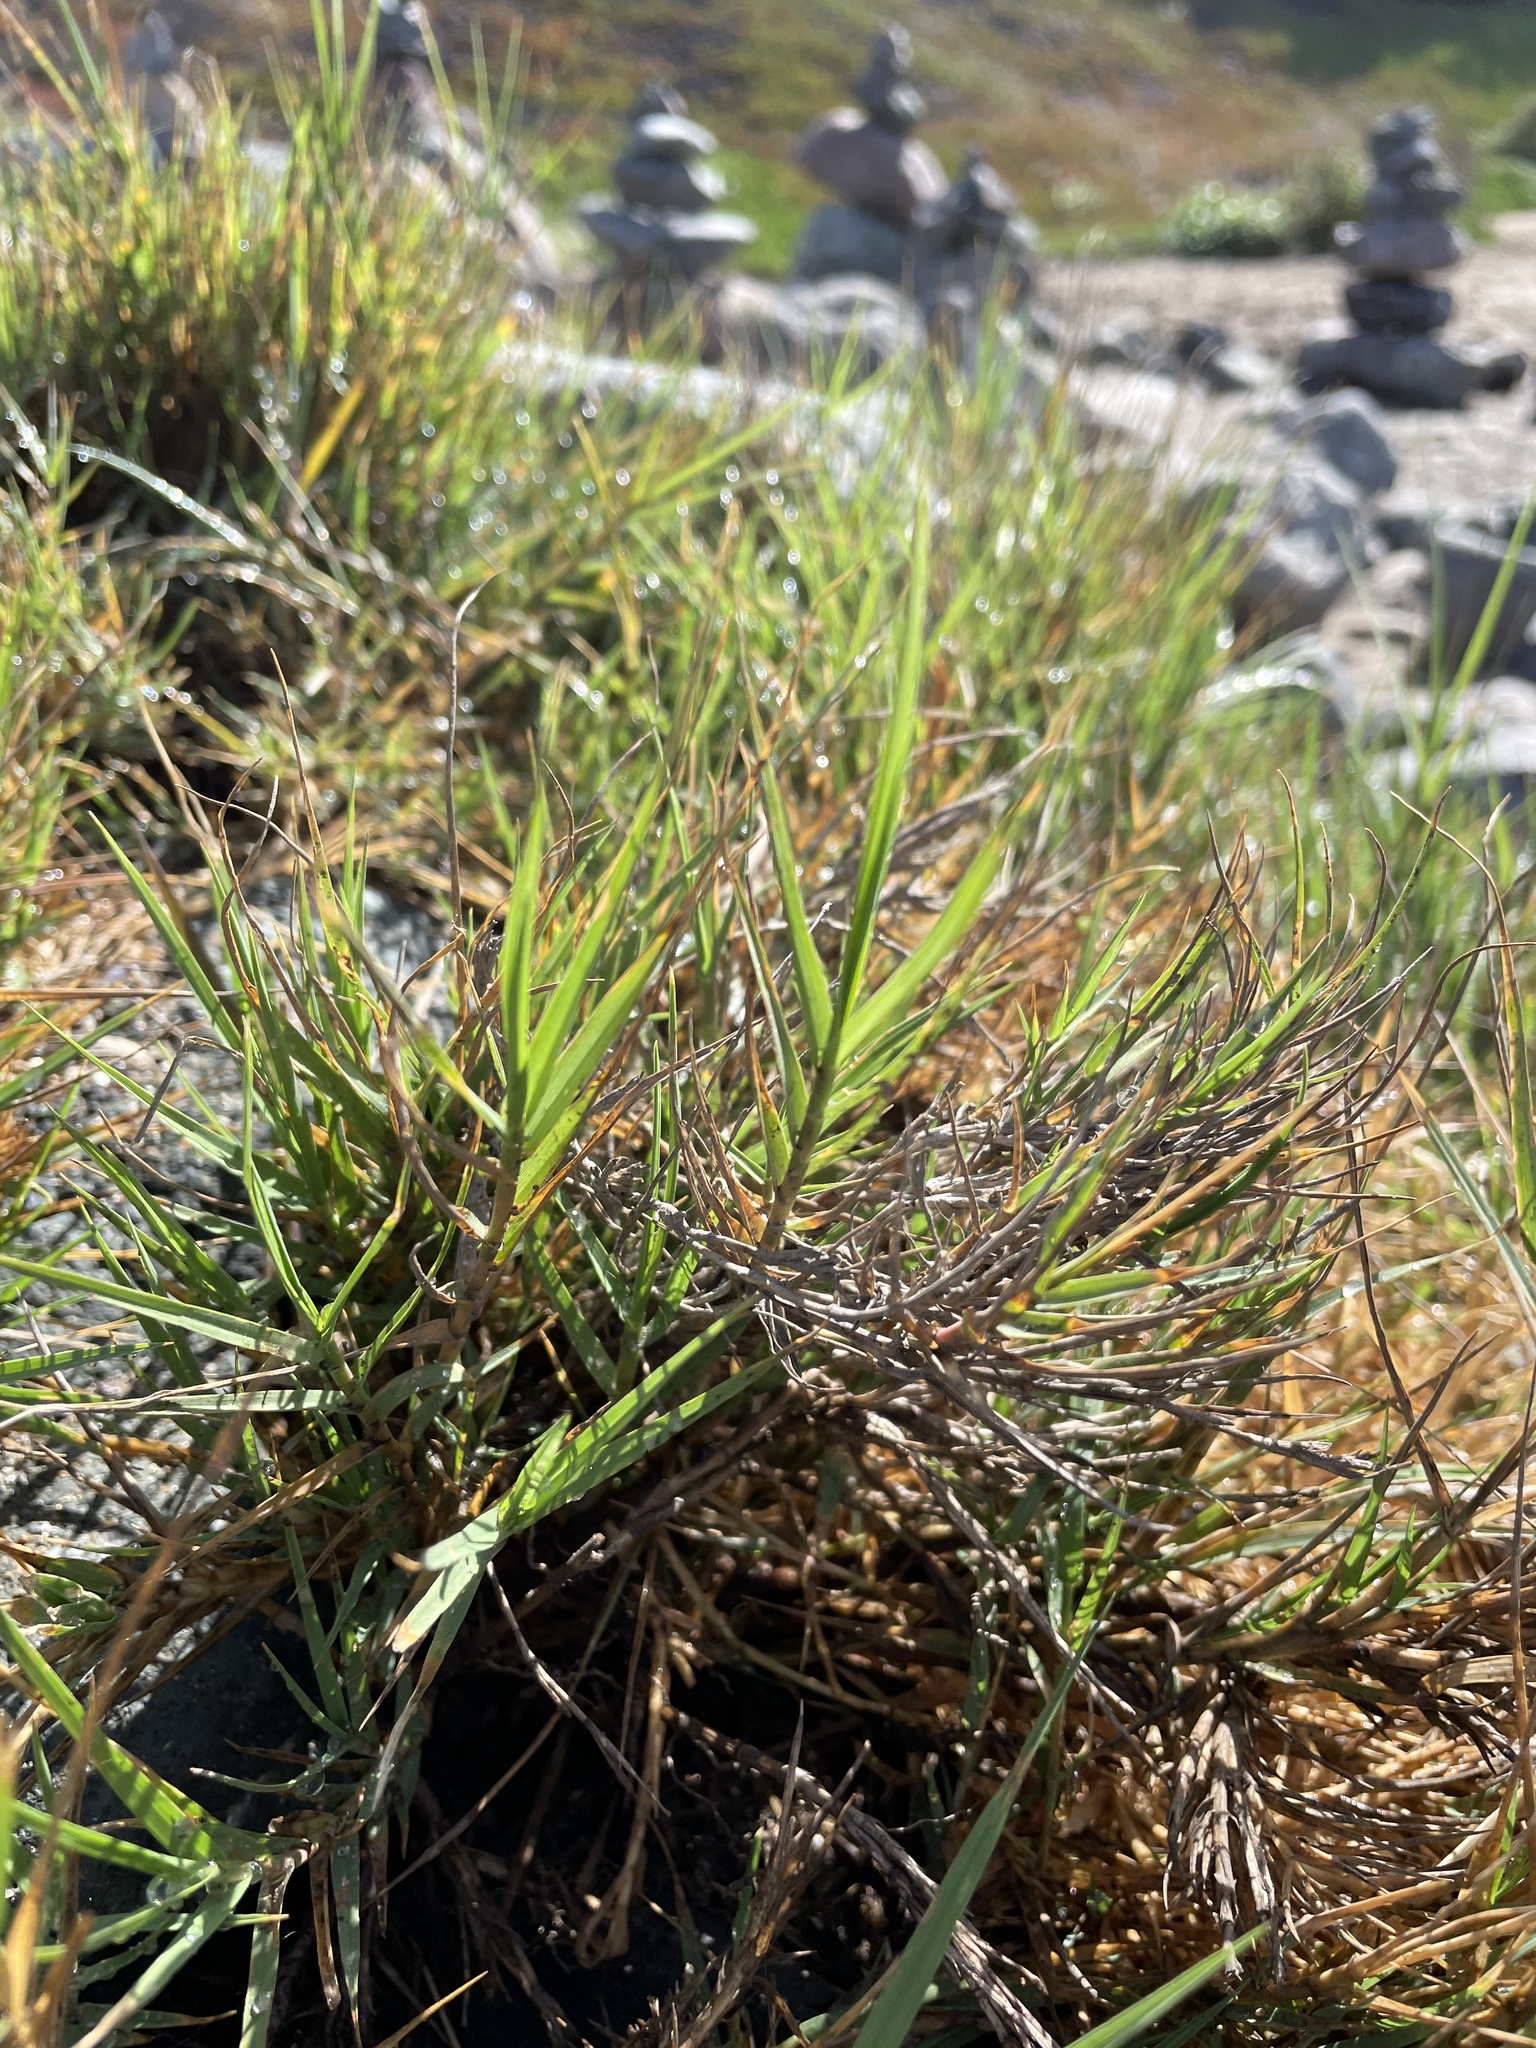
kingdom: Plantae
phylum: Tracheophyta
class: Liliopsida
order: Poales
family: Poaceae
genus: Distichlis
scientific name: Distichlis spicata
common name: Saltgrass
